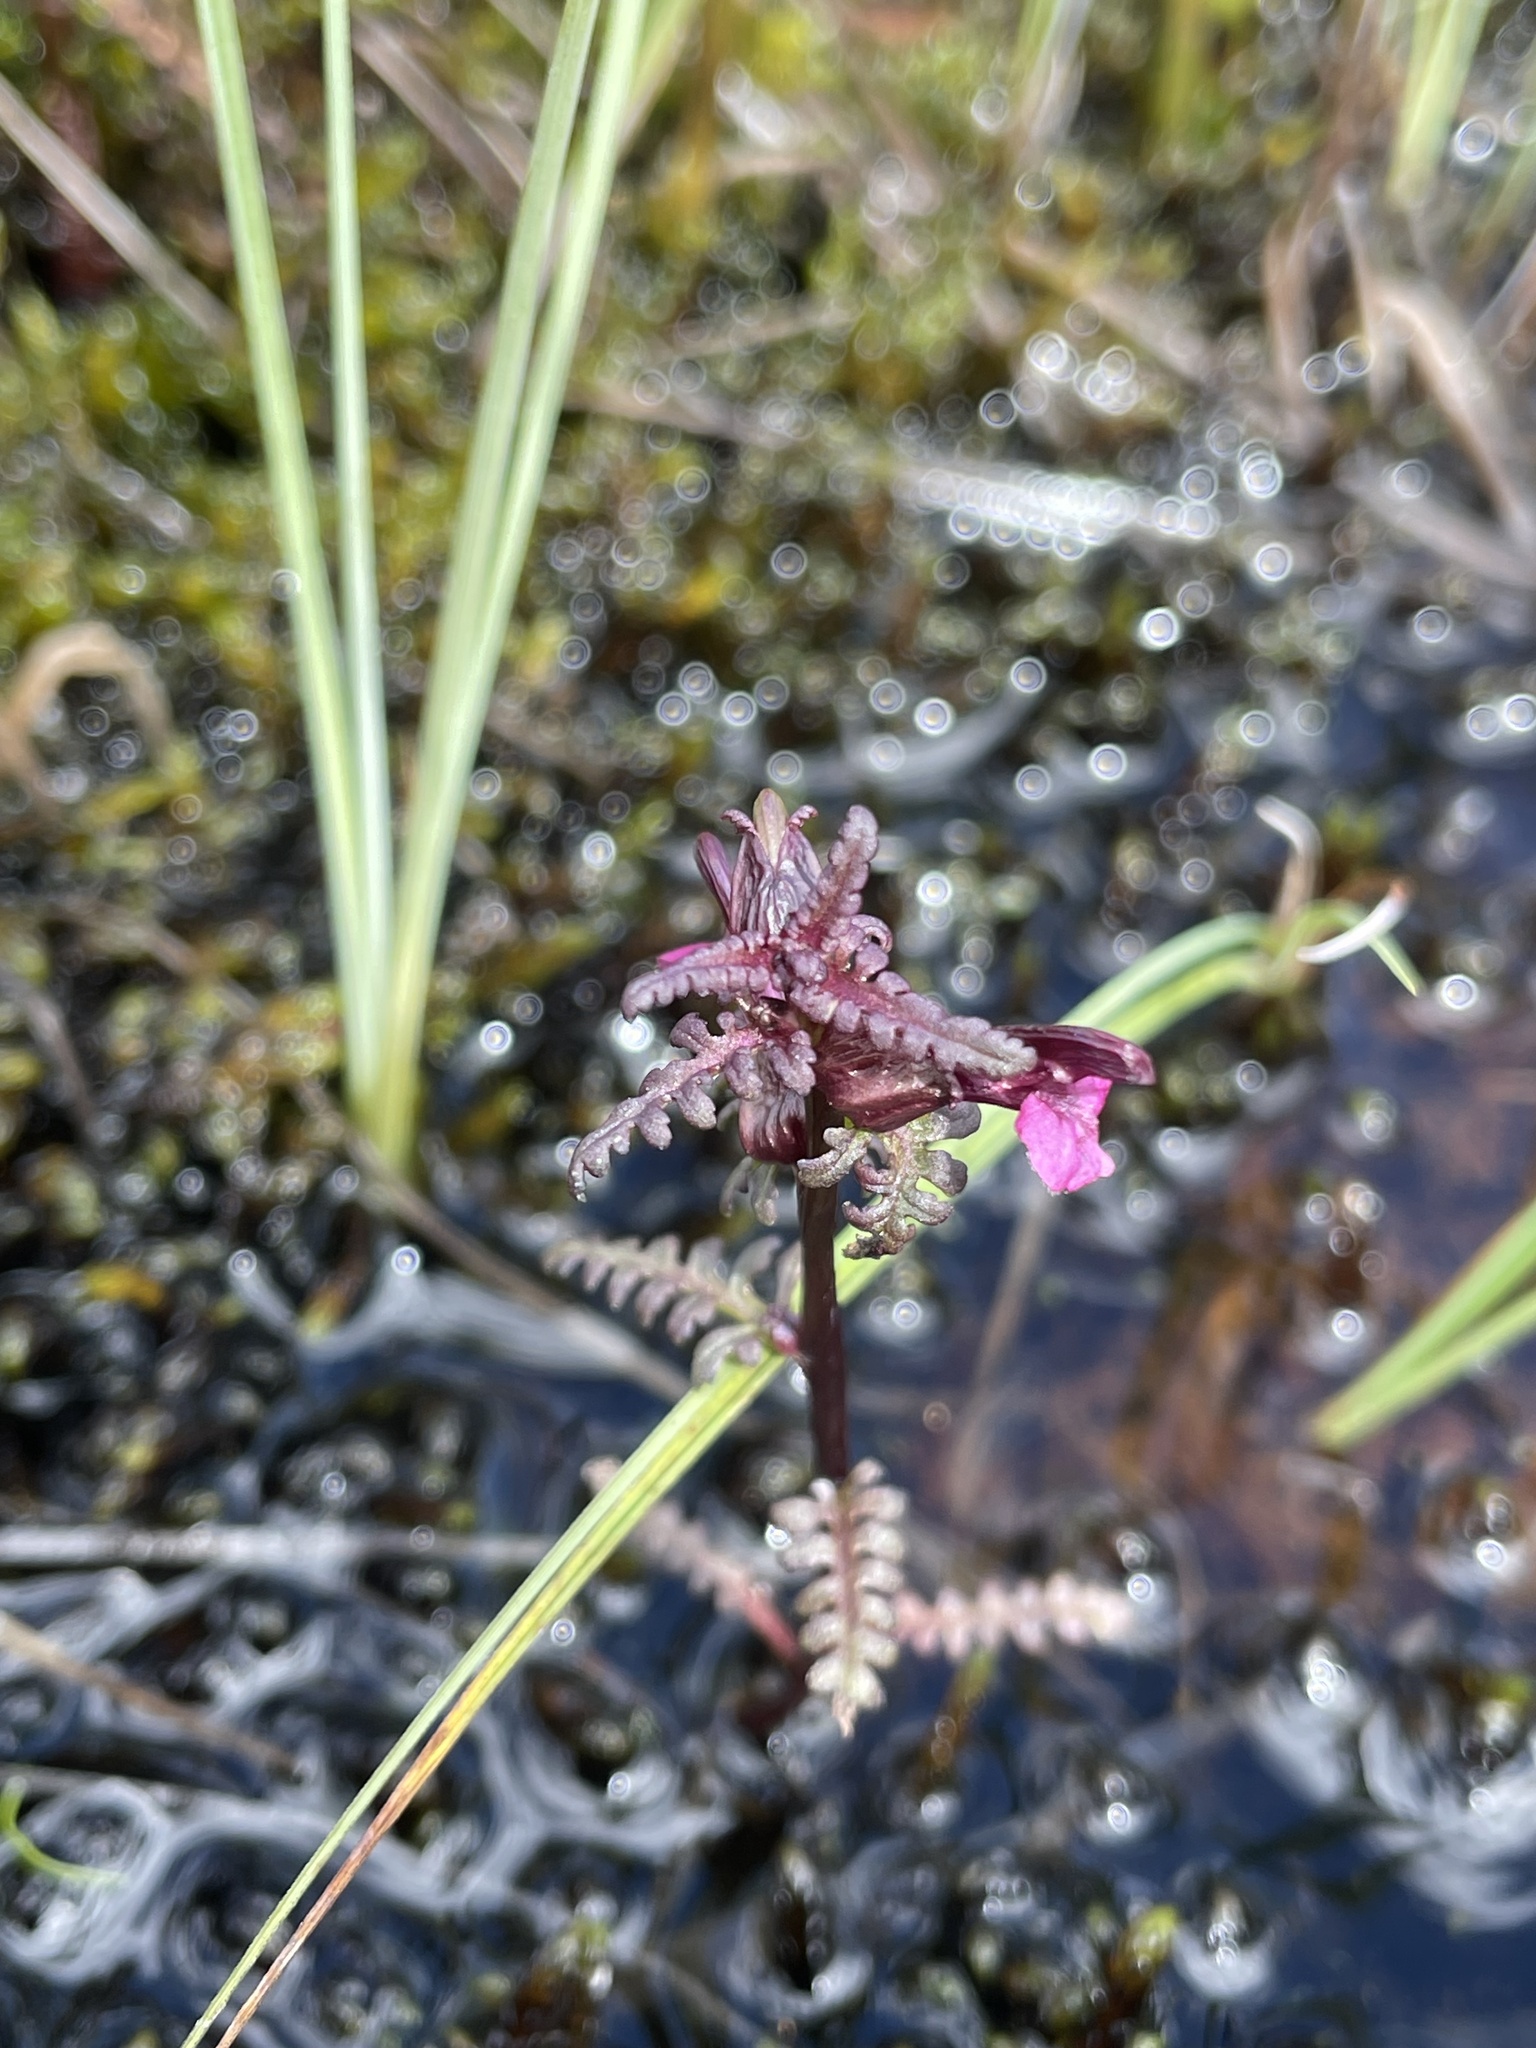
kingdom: Plantae
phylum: Tracheophyta
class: Magnoliopsida
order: Lamiales
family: Orobanchaceae
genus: Pedicularis
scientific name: Pedicularis parviflora
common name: Muskeg lousewort
